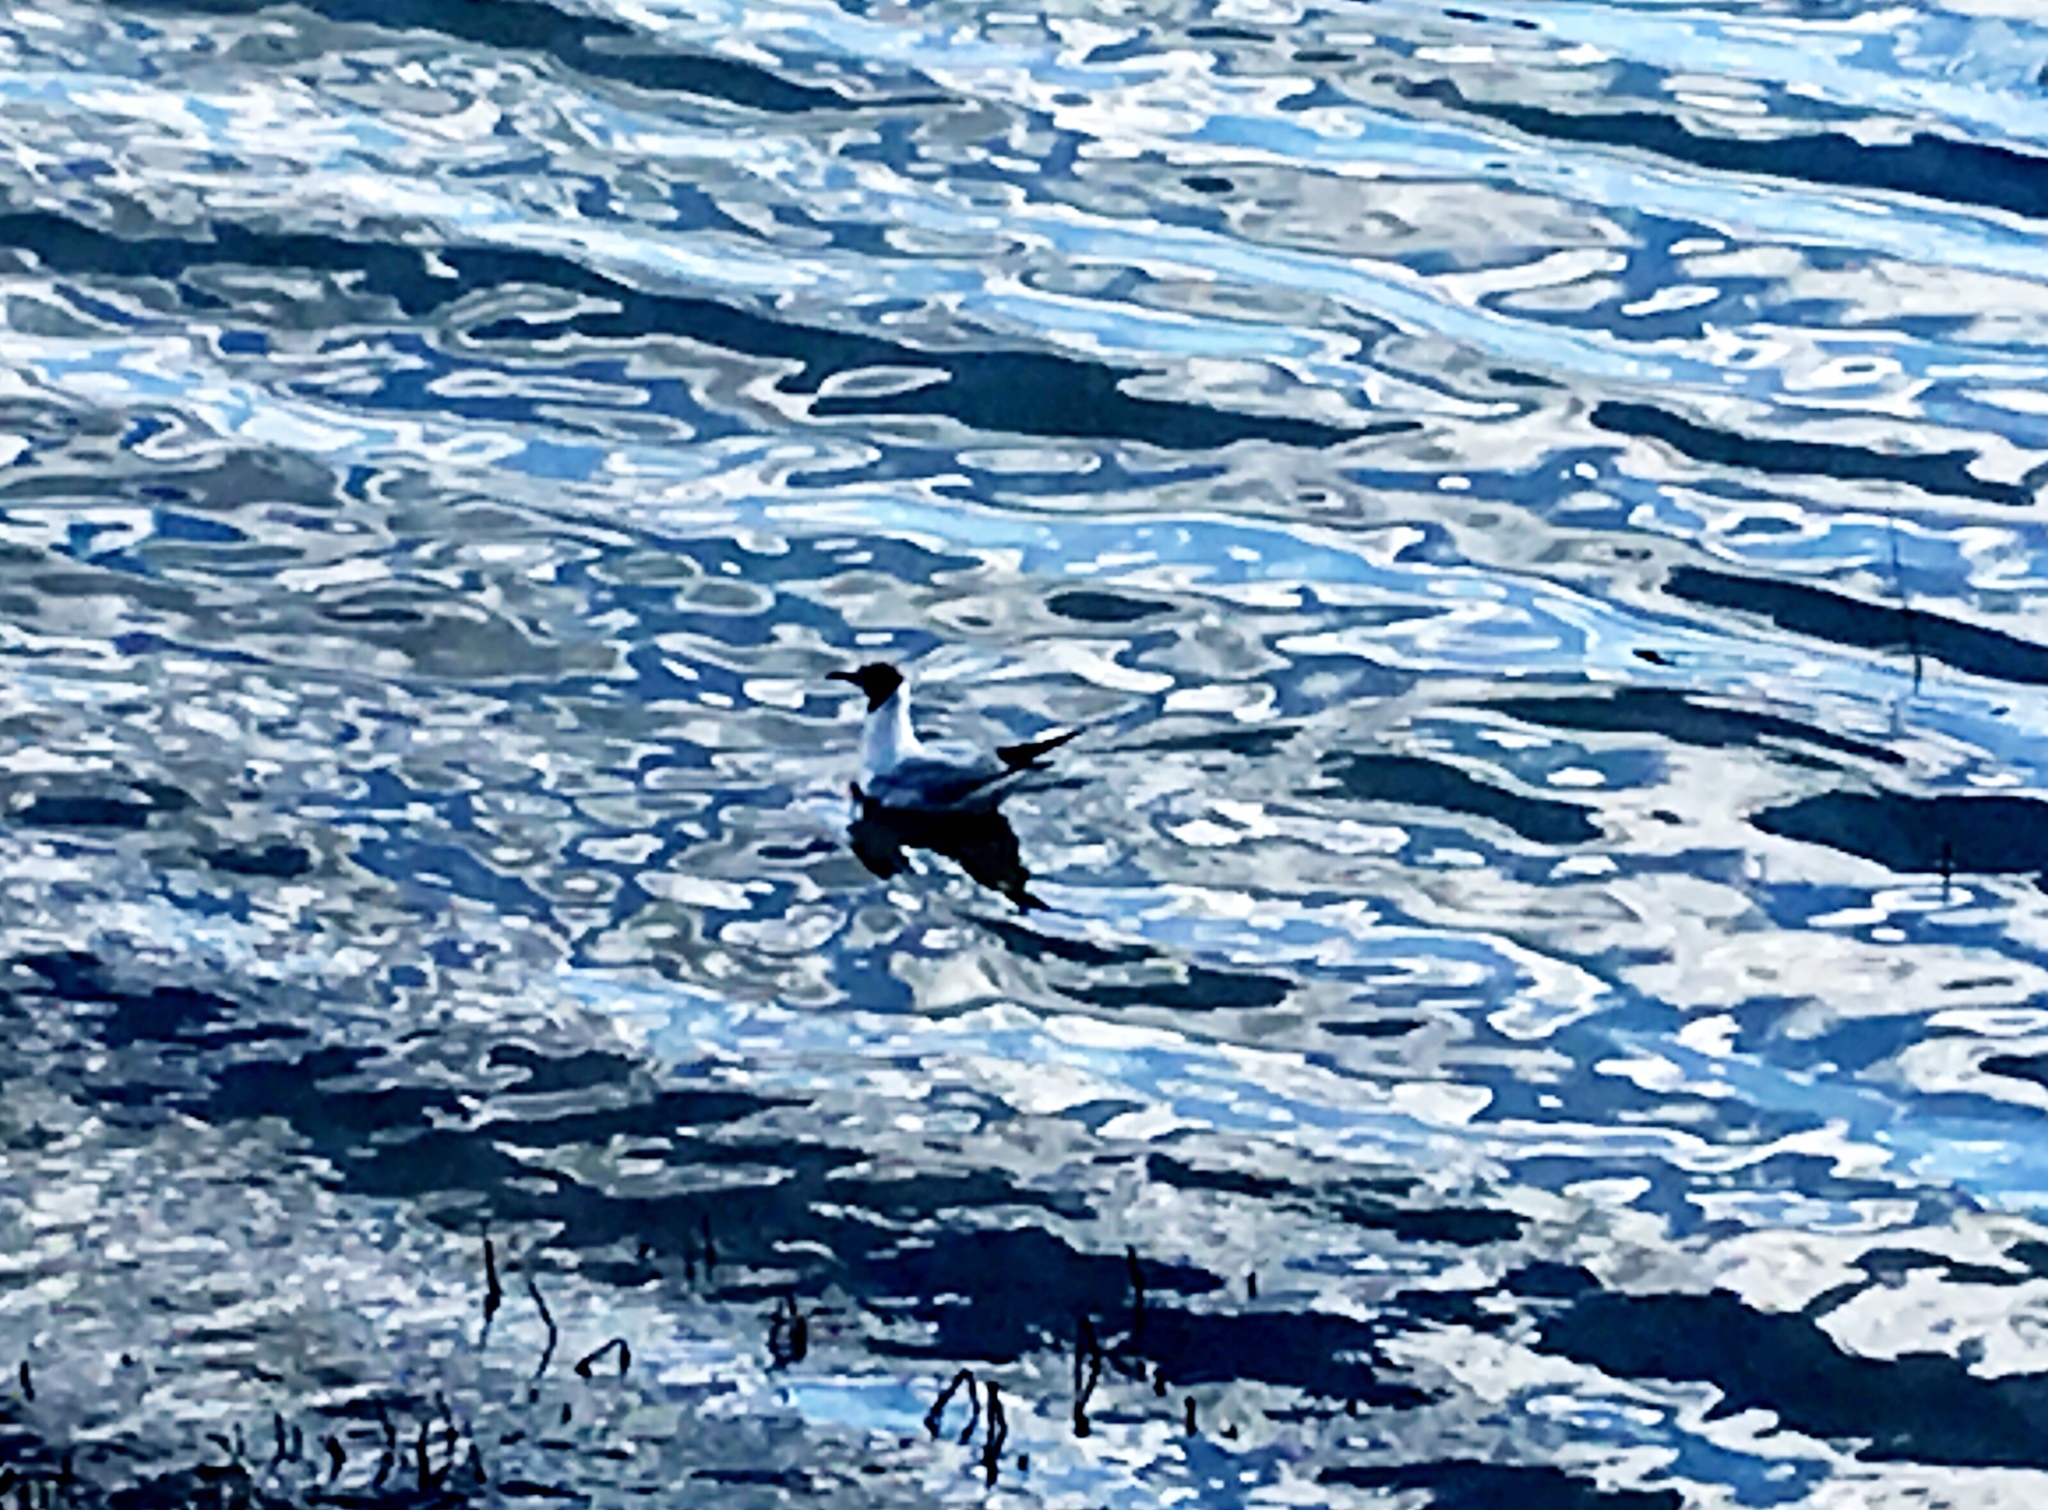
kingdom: Animalia
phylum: Chordata
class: Aves
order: Charadriiformes
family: Laridae
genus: Chroicocephalus
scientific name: Chroicocephalus ridibundus
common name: Black-headed gull
